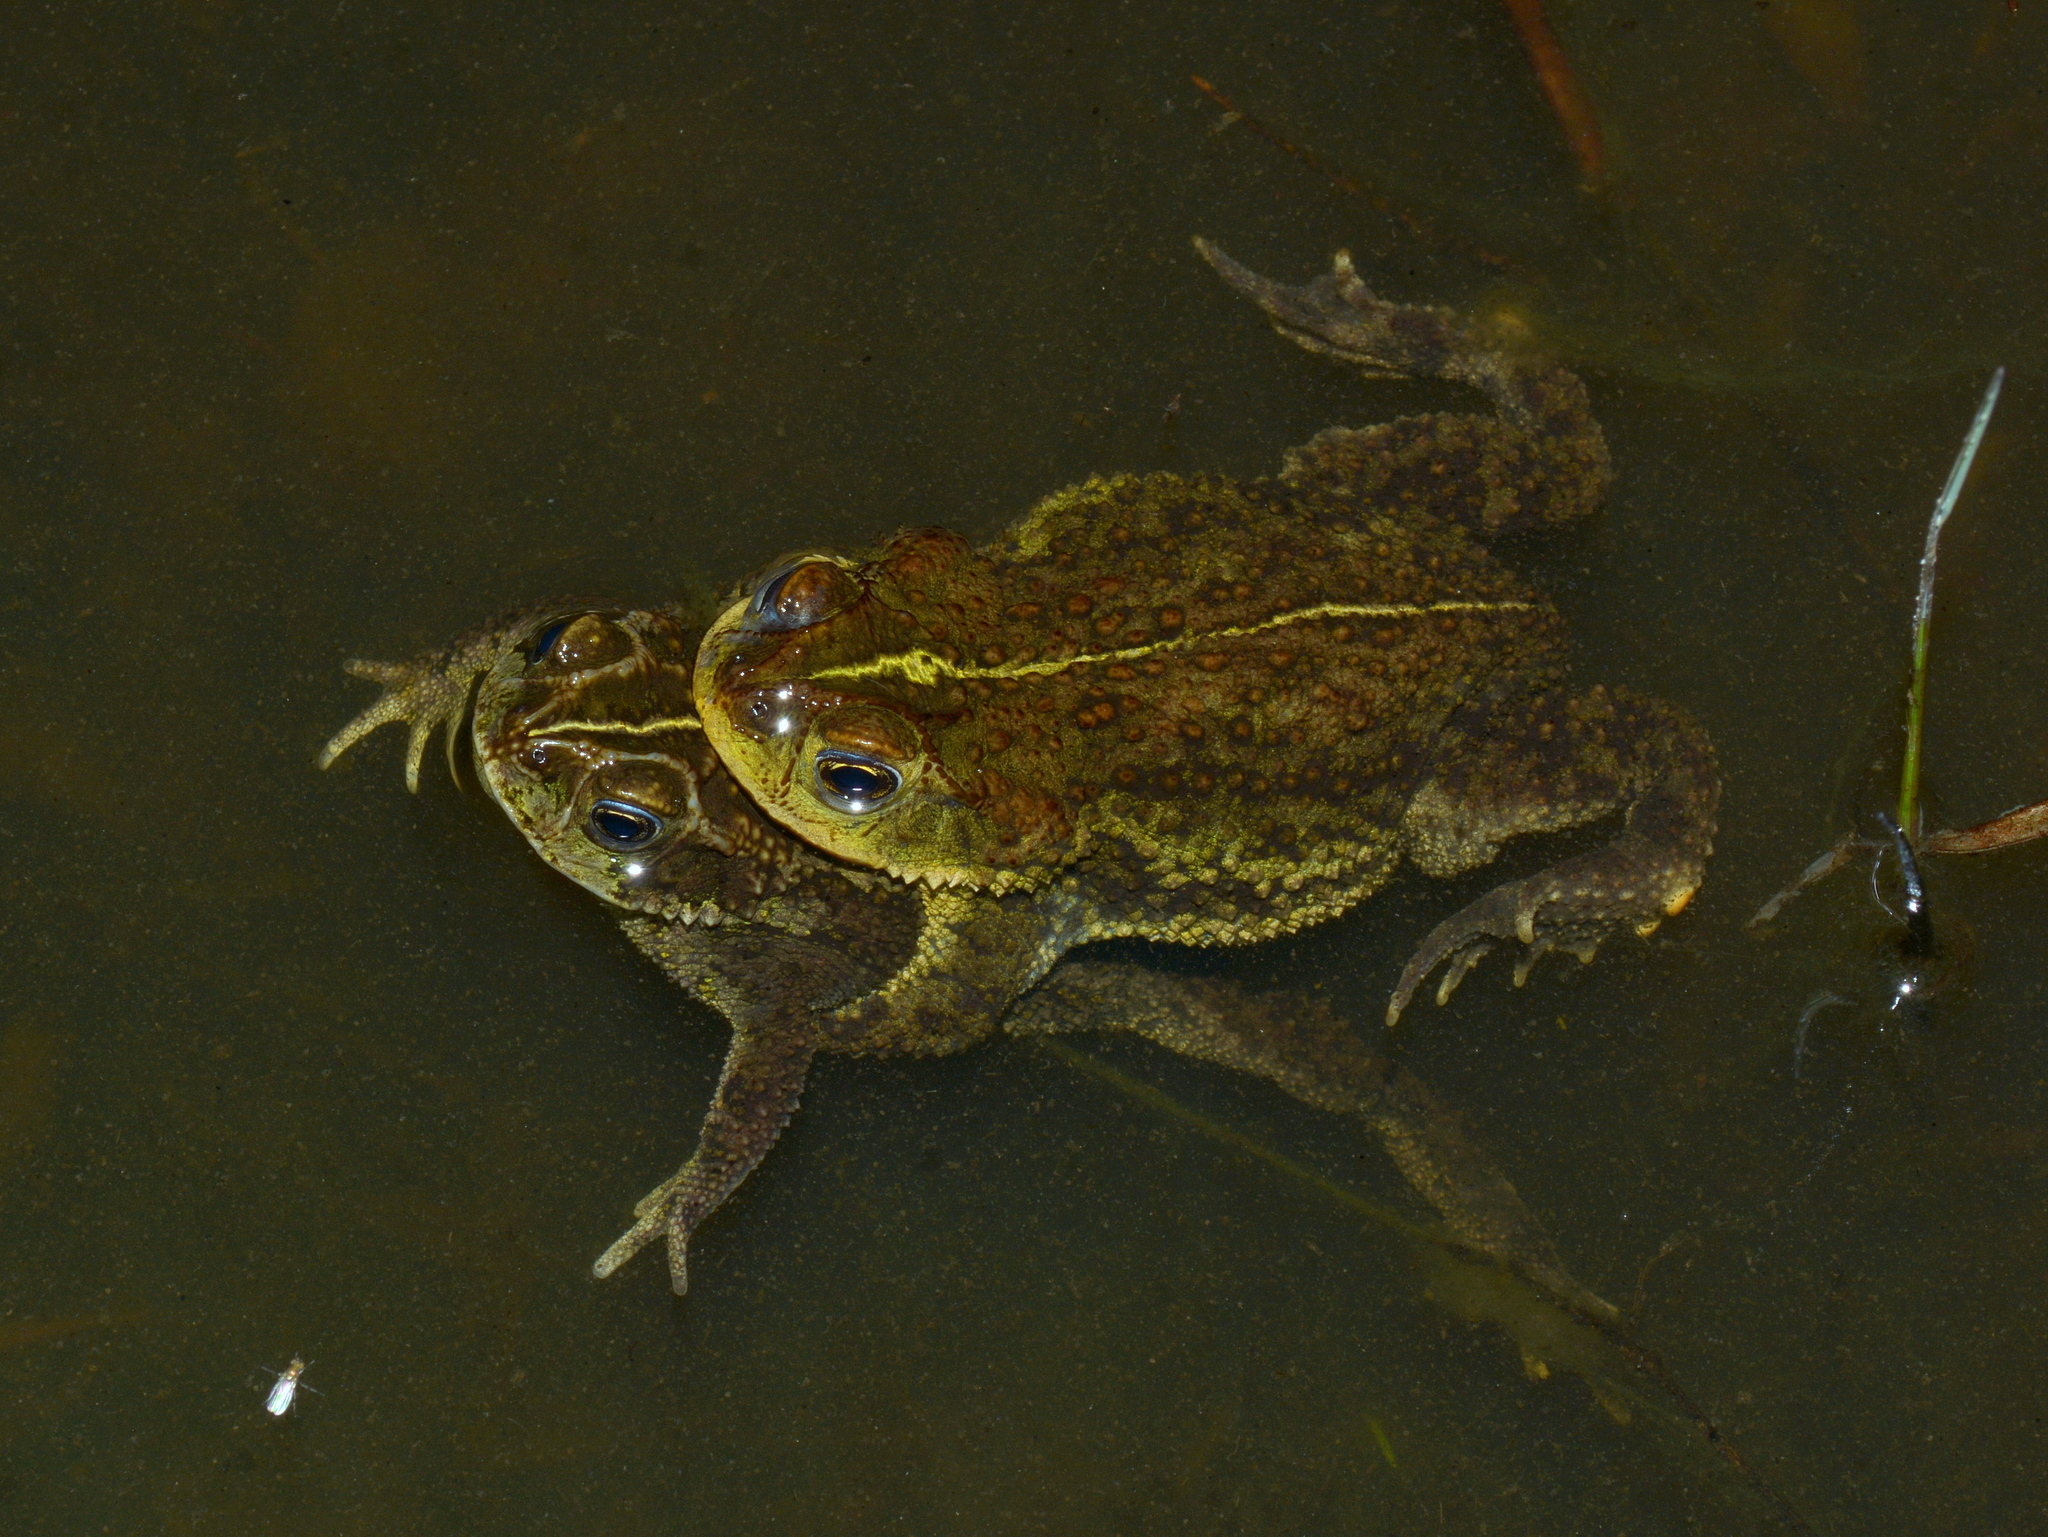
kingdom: Animalia
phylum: Chordata
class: Amphibia
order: Anura
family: Bufonidae
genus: Rhinella
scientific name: Rhinella dorbignyi
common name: D´orbigny’s toad
